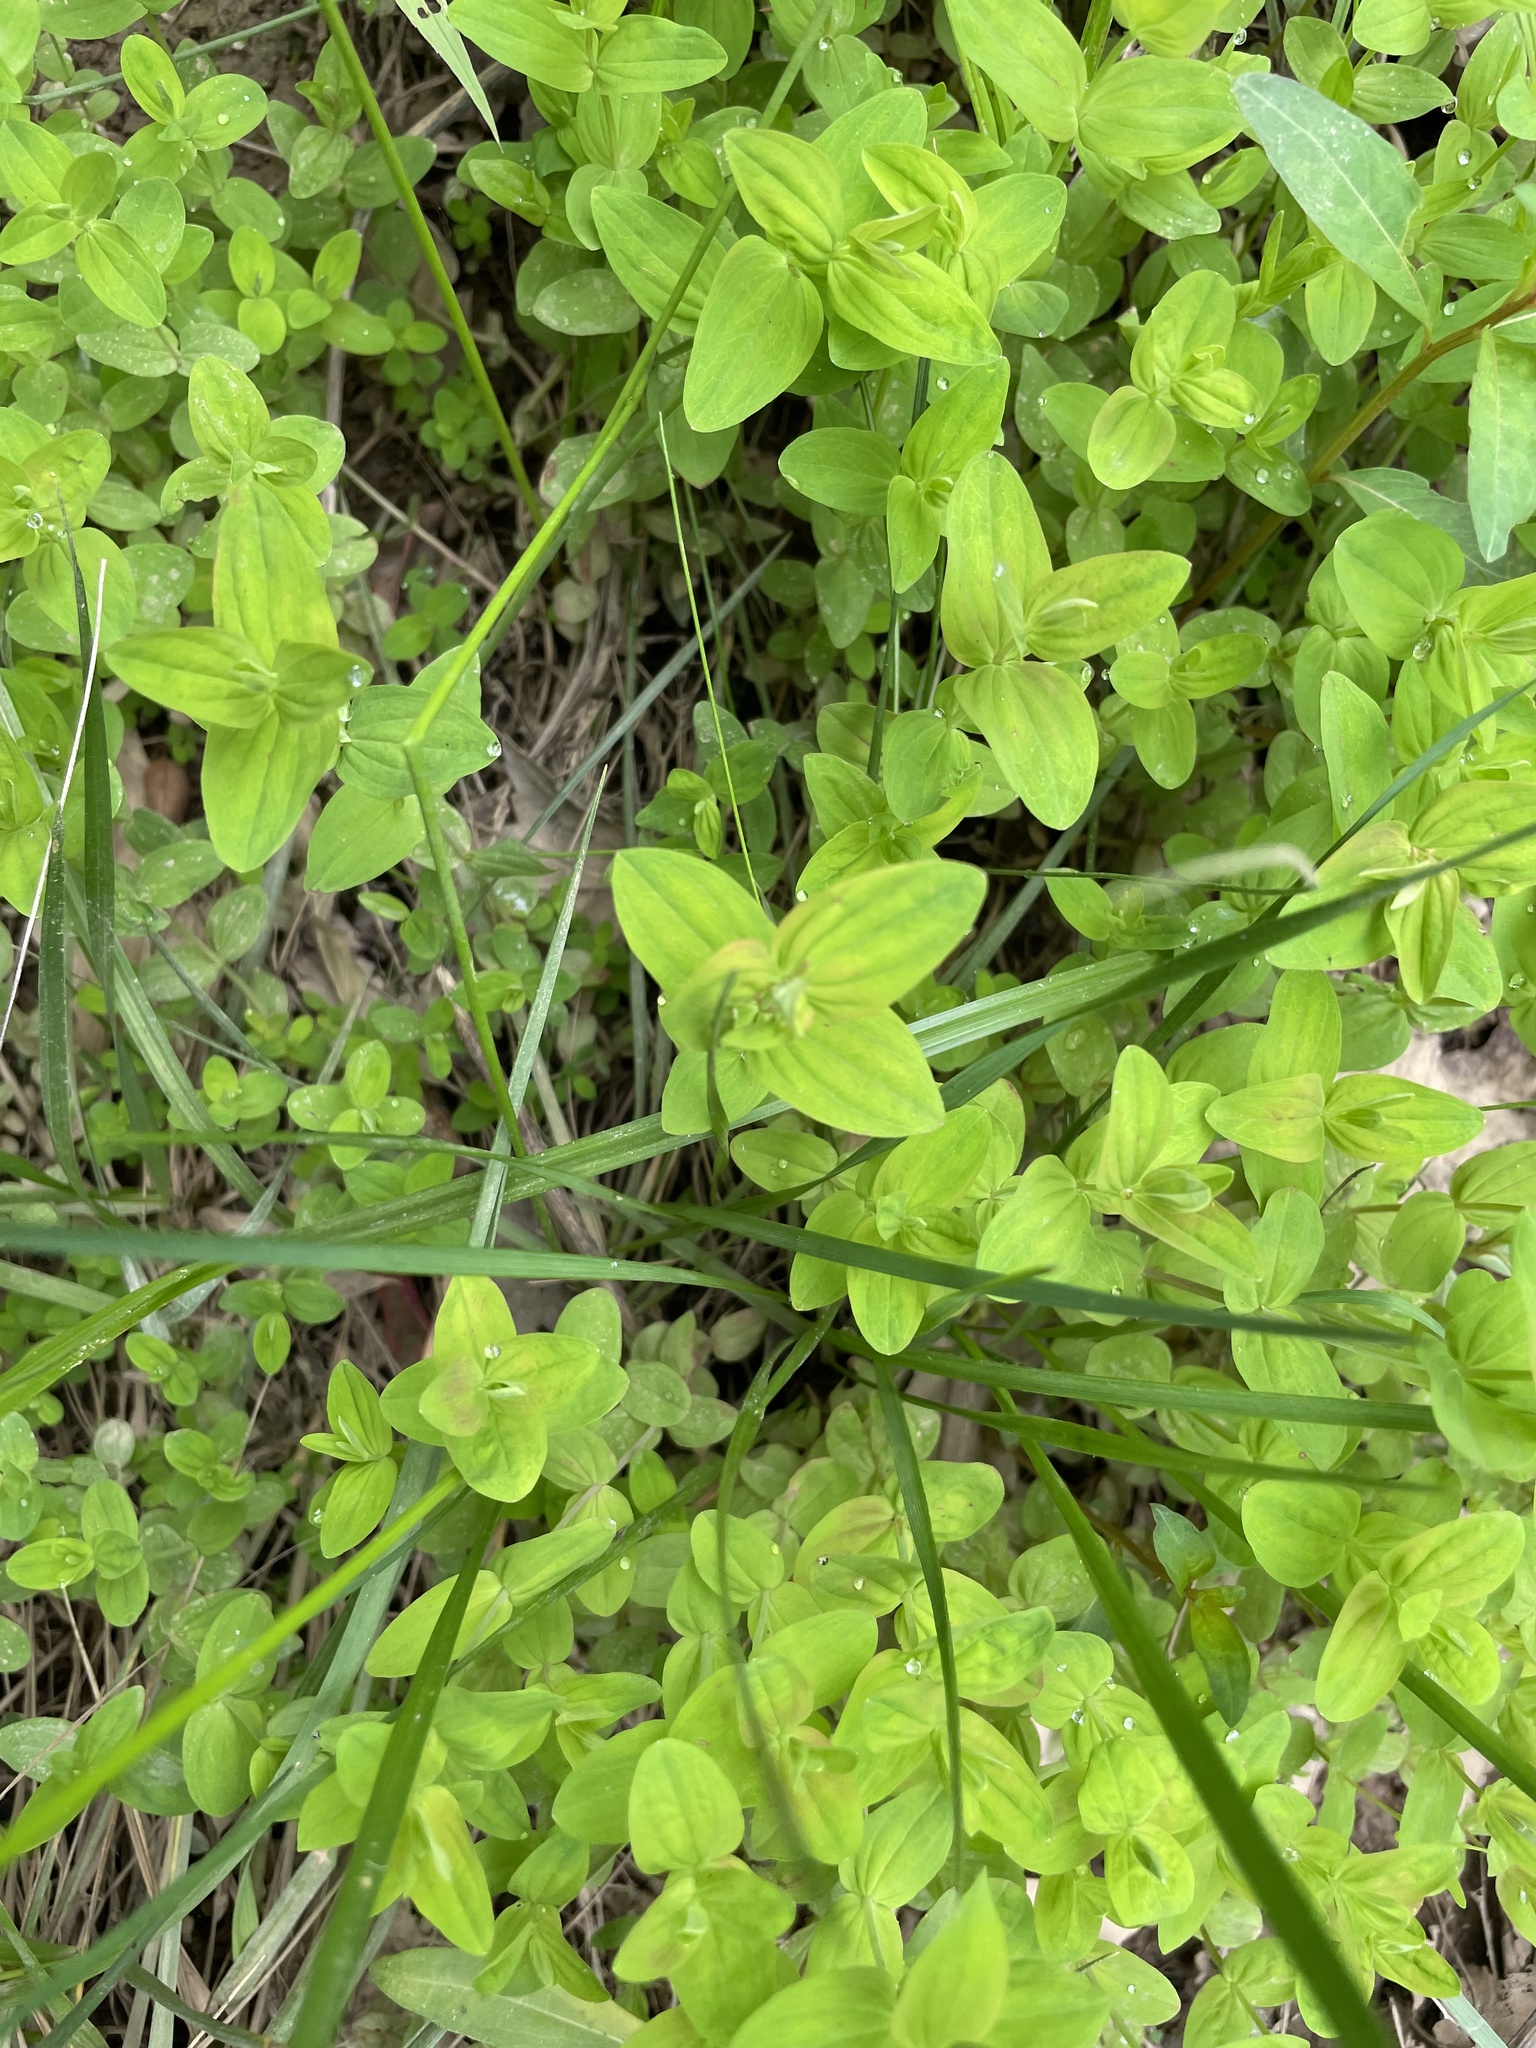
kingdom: Plantae
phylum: Tracheophyta
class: Magnoliopsida
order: Malpighiales
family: Hypericaceae
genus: Hypericum
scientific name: Hypericum mutilum
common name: Dwarf st. john's-wort
